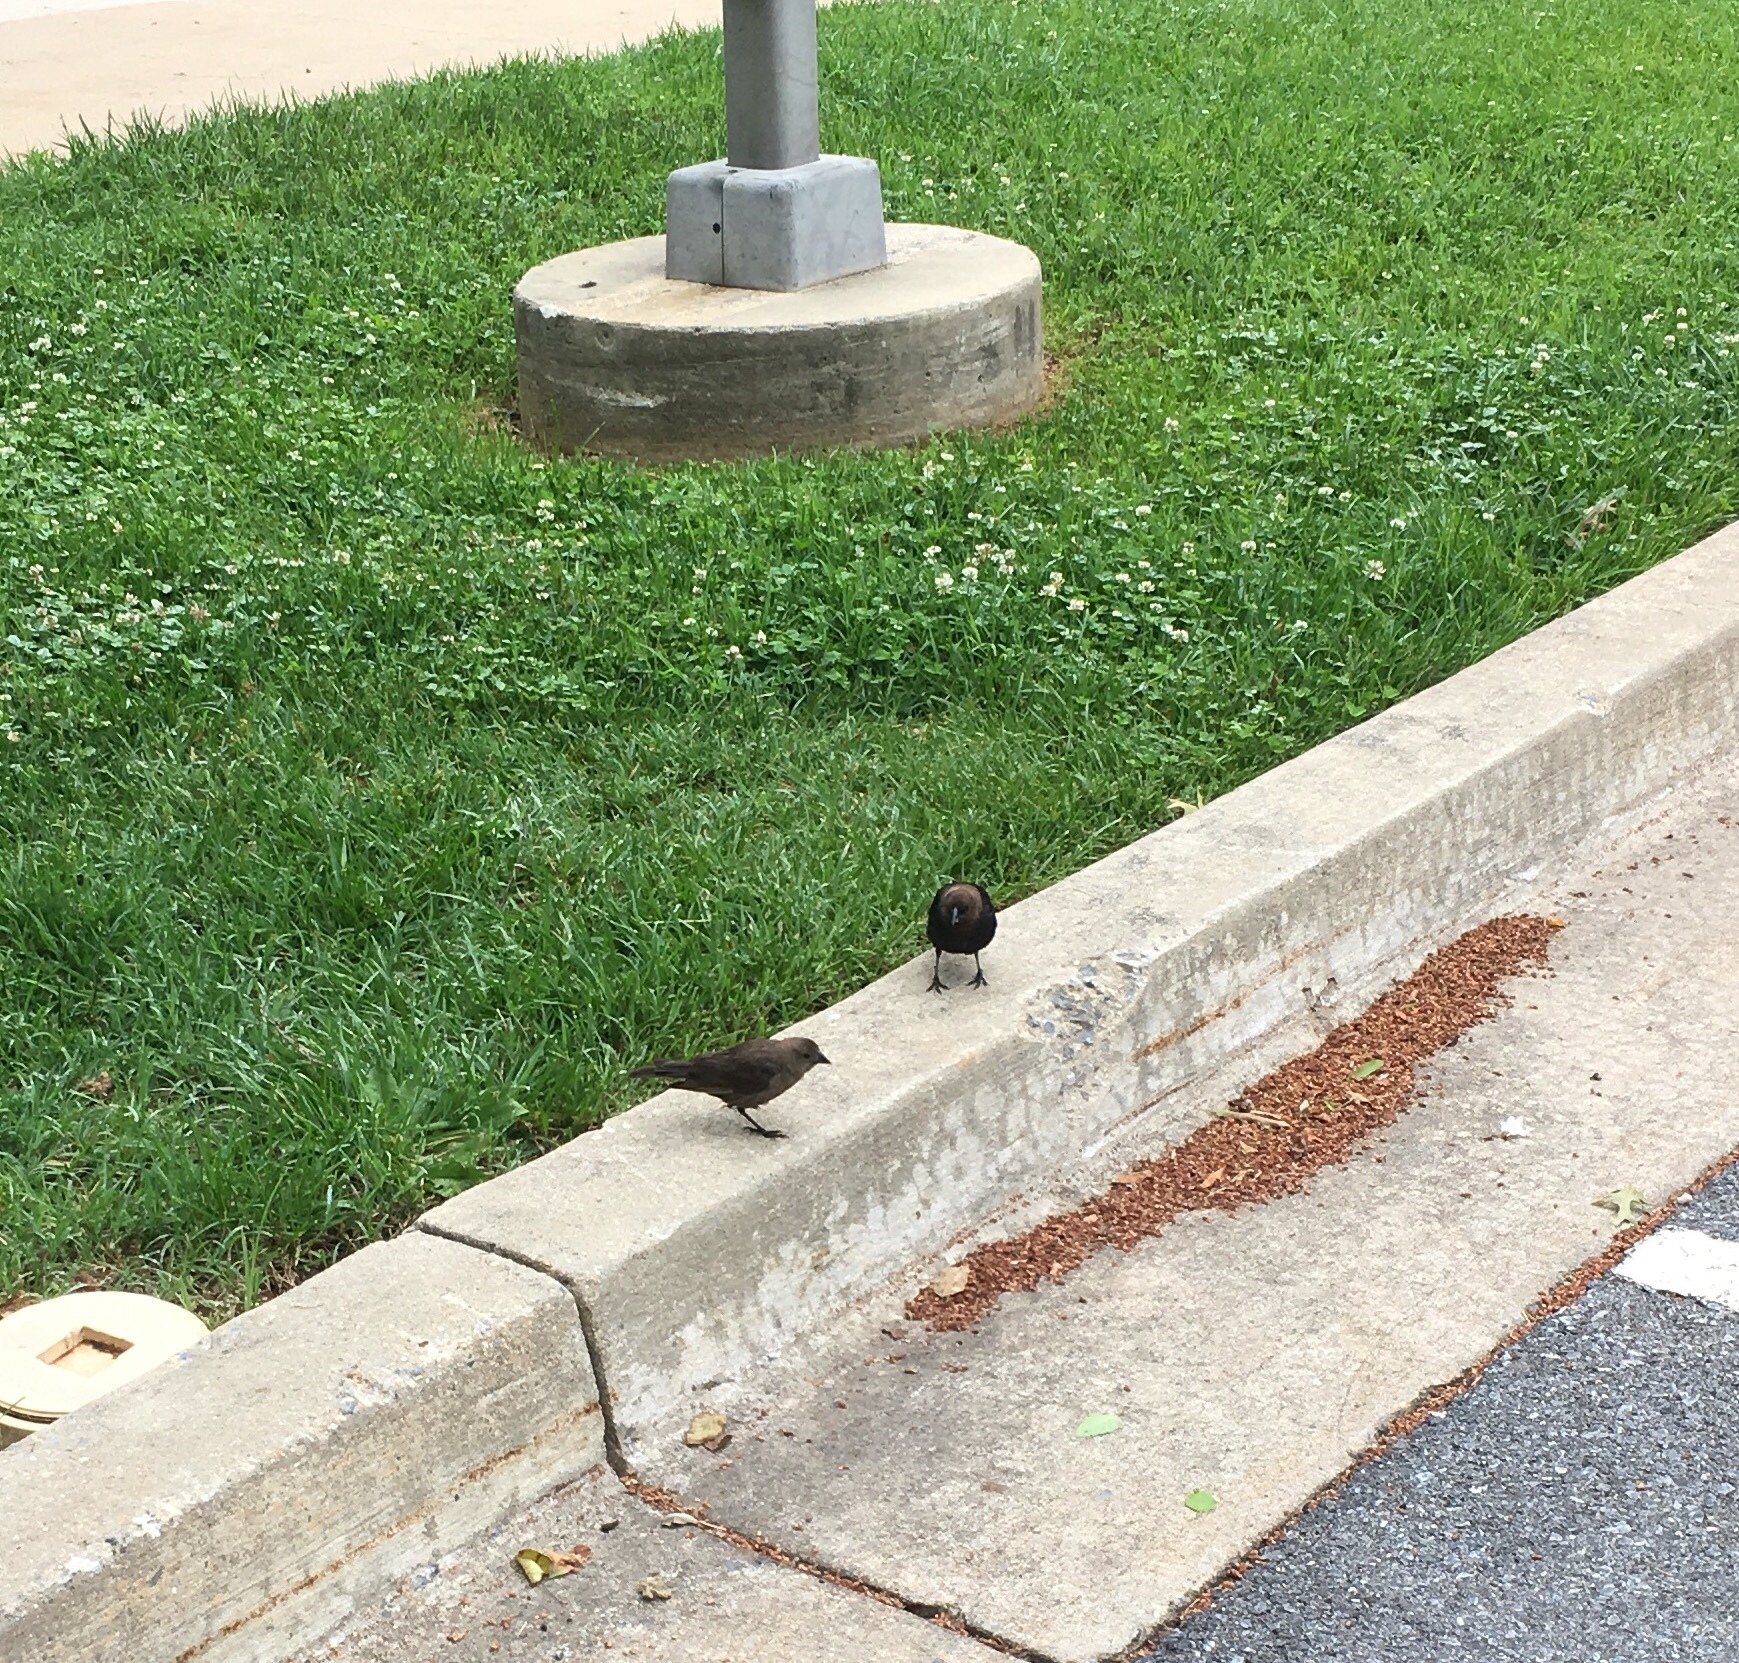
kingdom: Animalia
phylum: Chordata
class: Aves
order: Passeriformes
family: Icteridae
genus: Molothrus
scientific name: Molothrus ater
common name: Brown-headed cowbird
